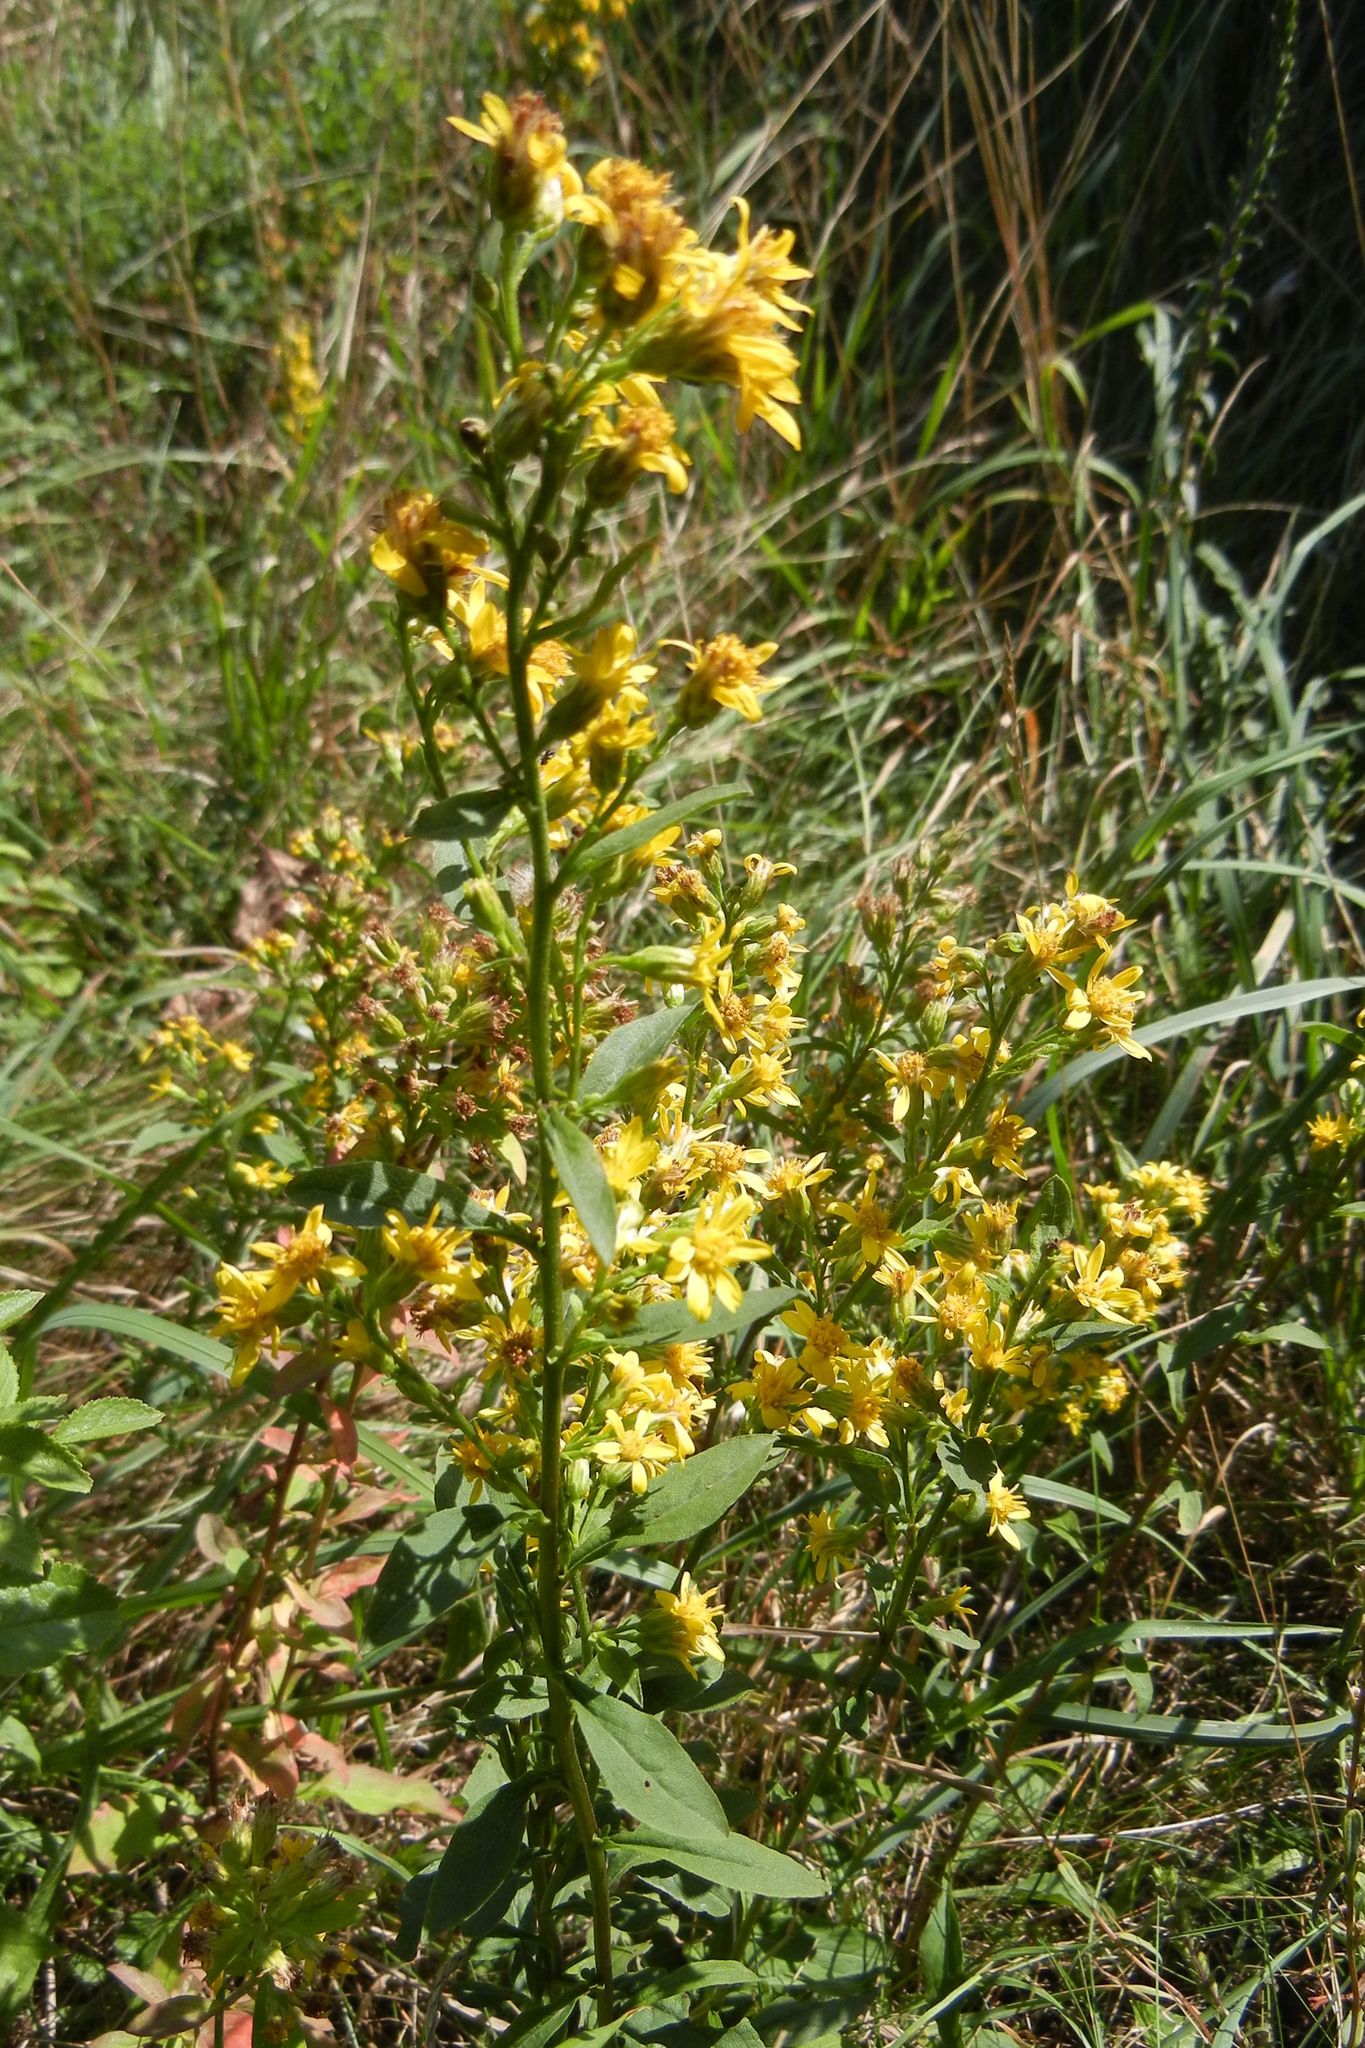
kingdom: Plantae
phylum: Tracheophyta
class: Magnoliopsida
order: Asterales
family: Asteraceae
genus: Solidago
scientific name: Solidago virgaurea
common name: Goldenrod
